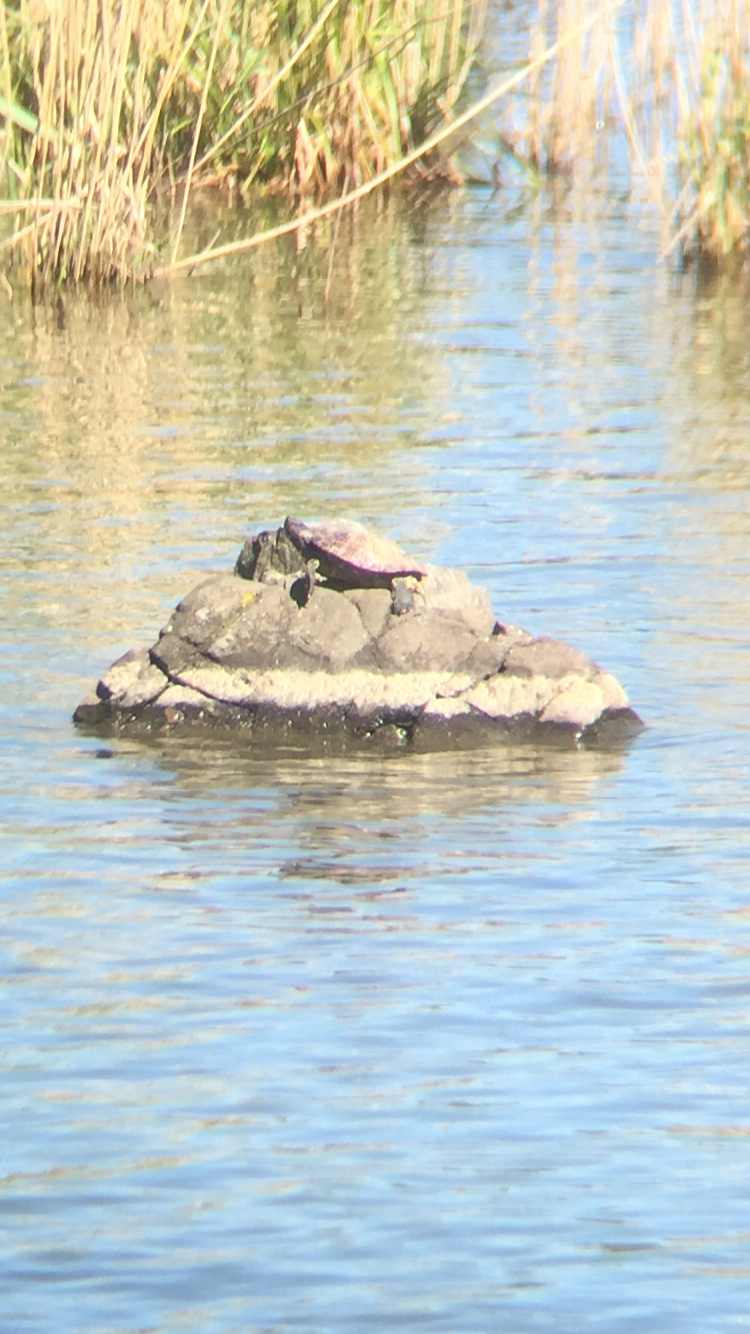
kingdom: Animalia
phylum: Chordata
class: Testudines
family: Emydidae
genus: Trachemys
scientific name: Trachemys scripta
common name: Slider
